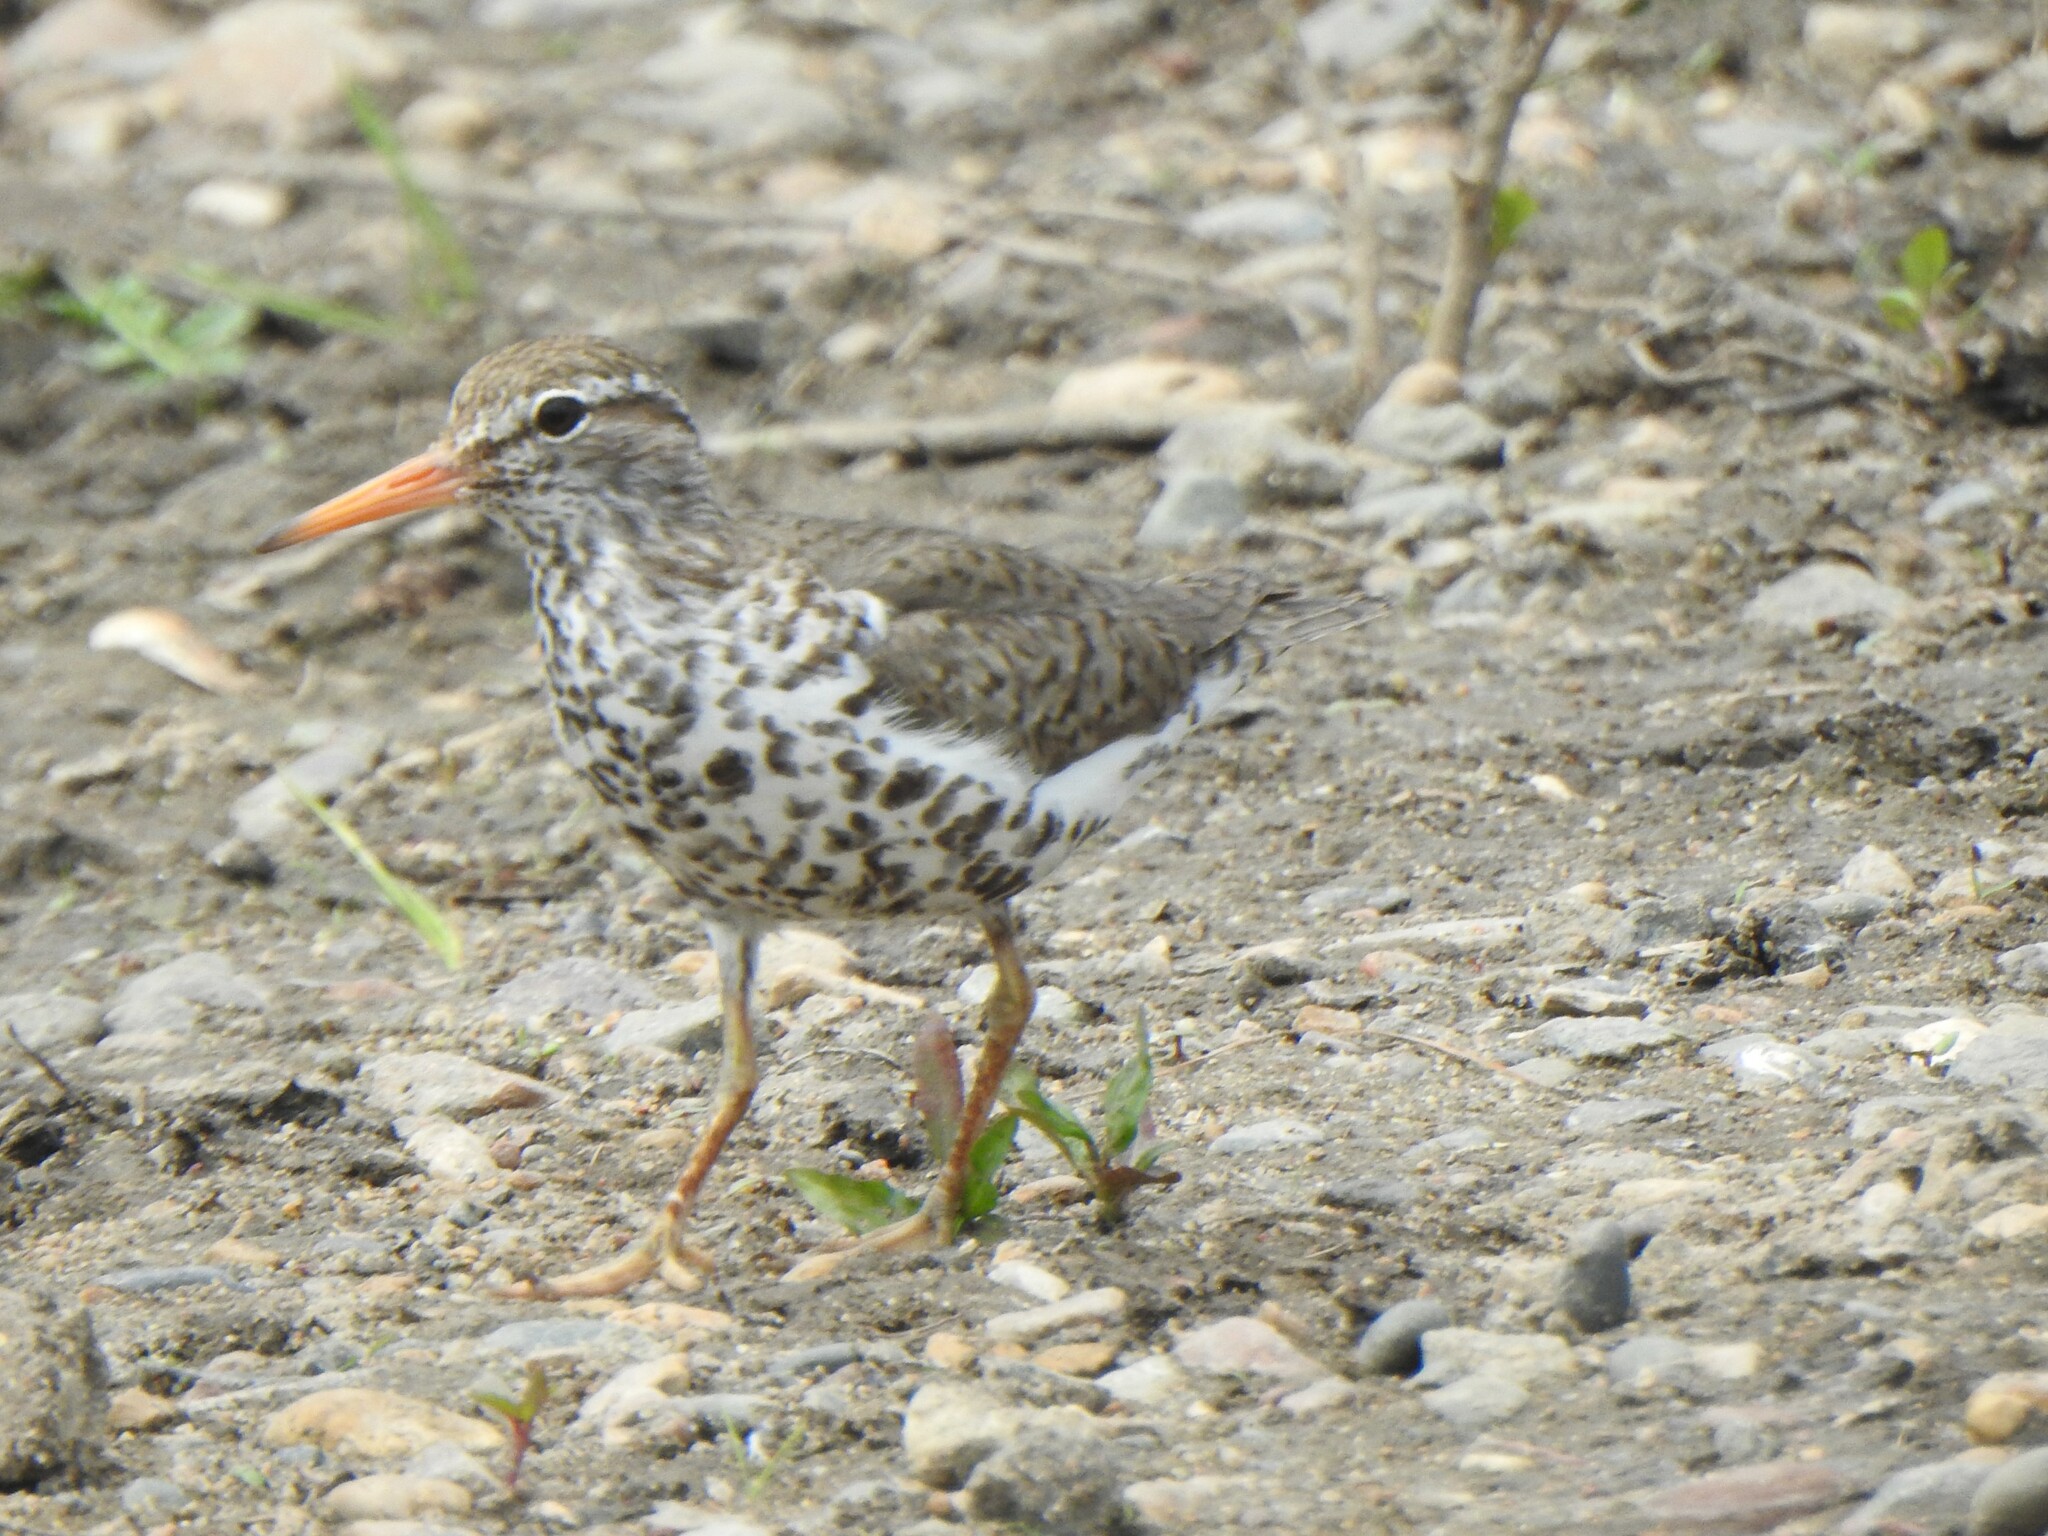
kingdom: Animalia
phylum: Chordata
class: Aves
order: Charadriiformes
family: Scolopacidae
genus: Actitis
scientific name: Actitis macularius
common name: Spotted sandpiper
